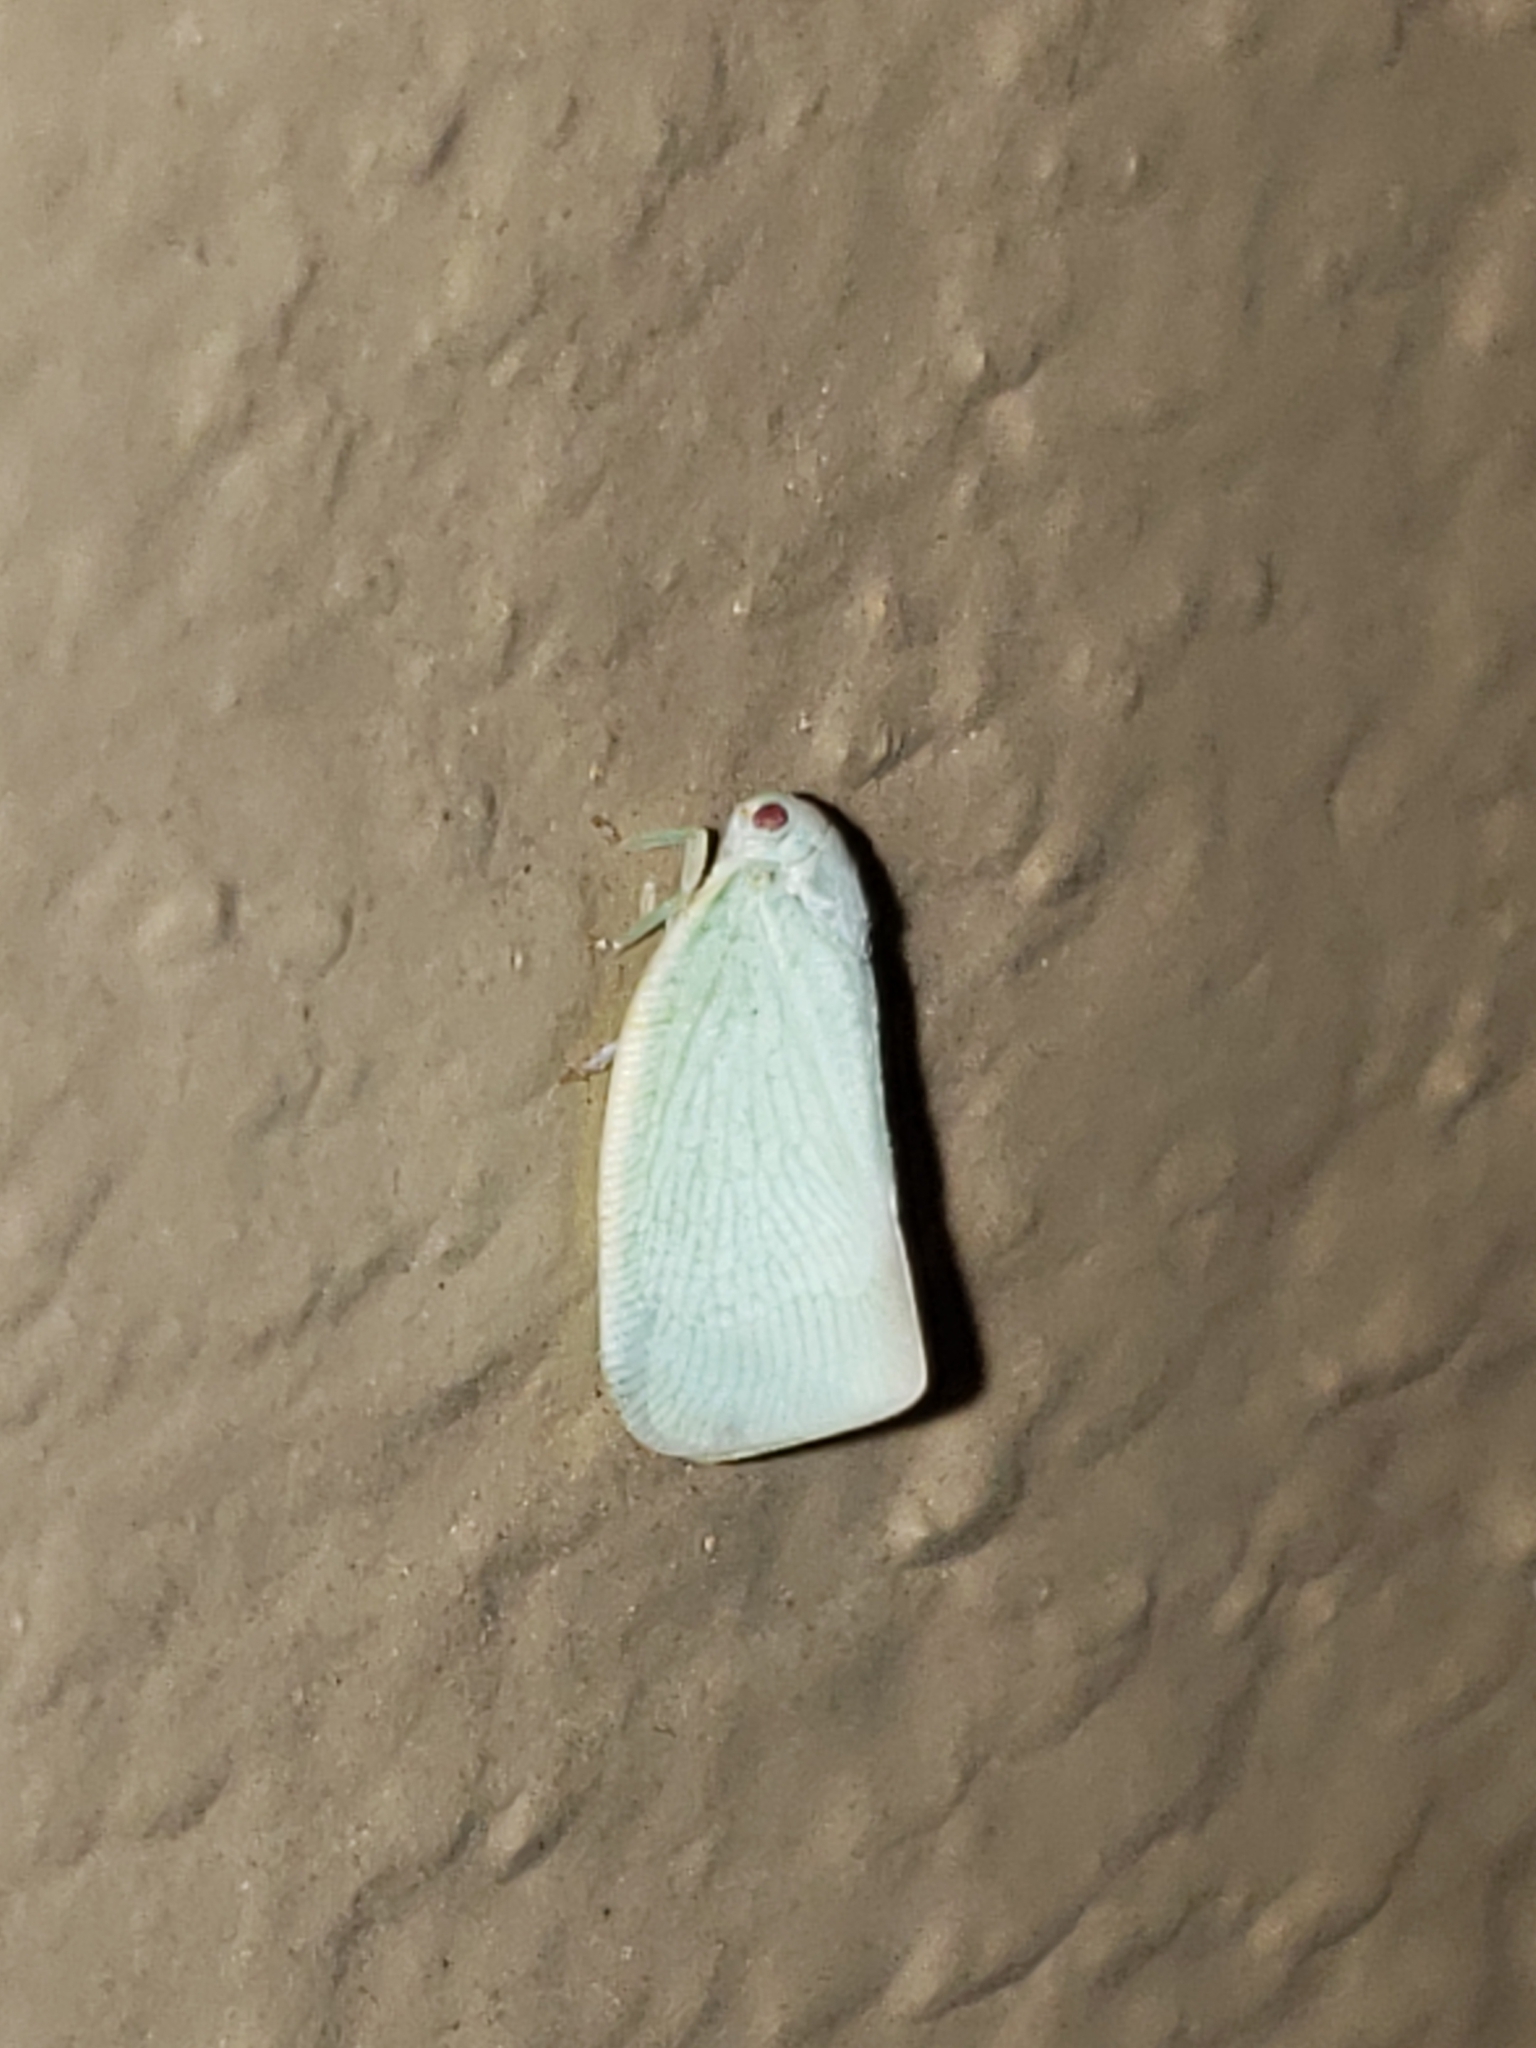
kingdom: Animalia
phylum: Arthropoda
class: Insecta
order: Hemiptera
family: Flatidae
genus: Flatormenis
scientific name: Flatormenis proxima
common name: Northern flatid planthopper
